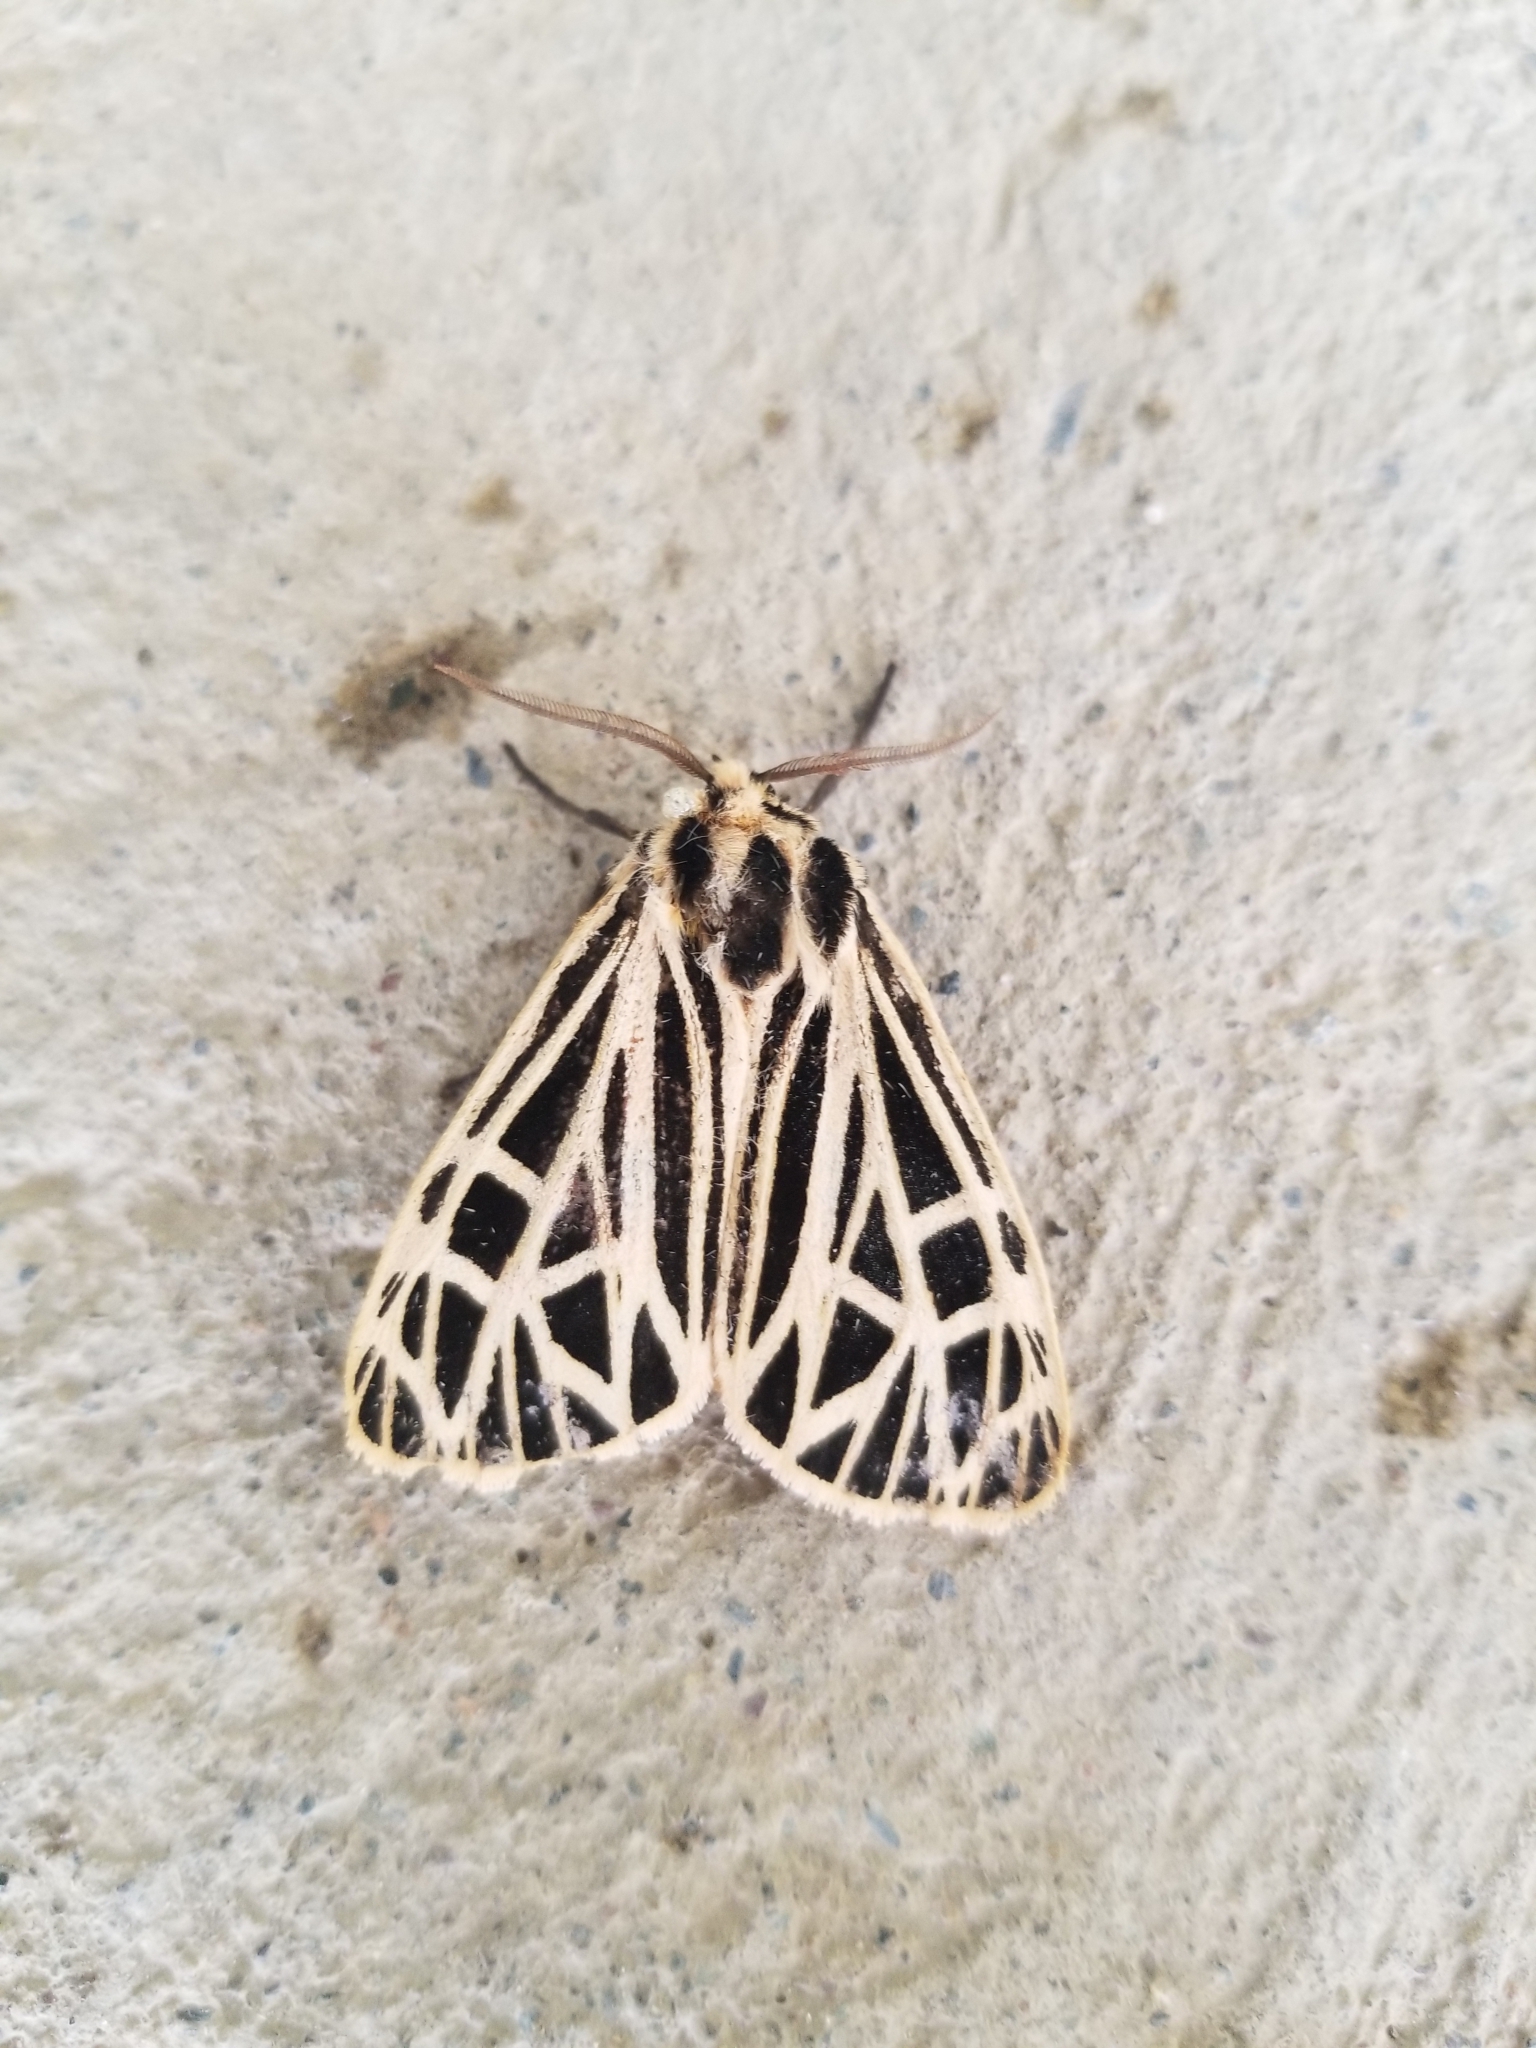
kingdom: Animalia
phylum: Arthropoda
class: Insecta
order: Lepidoptera
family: Erebidae
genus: Grammia
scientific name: Grammia virgo
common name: Virgin tiger moth
